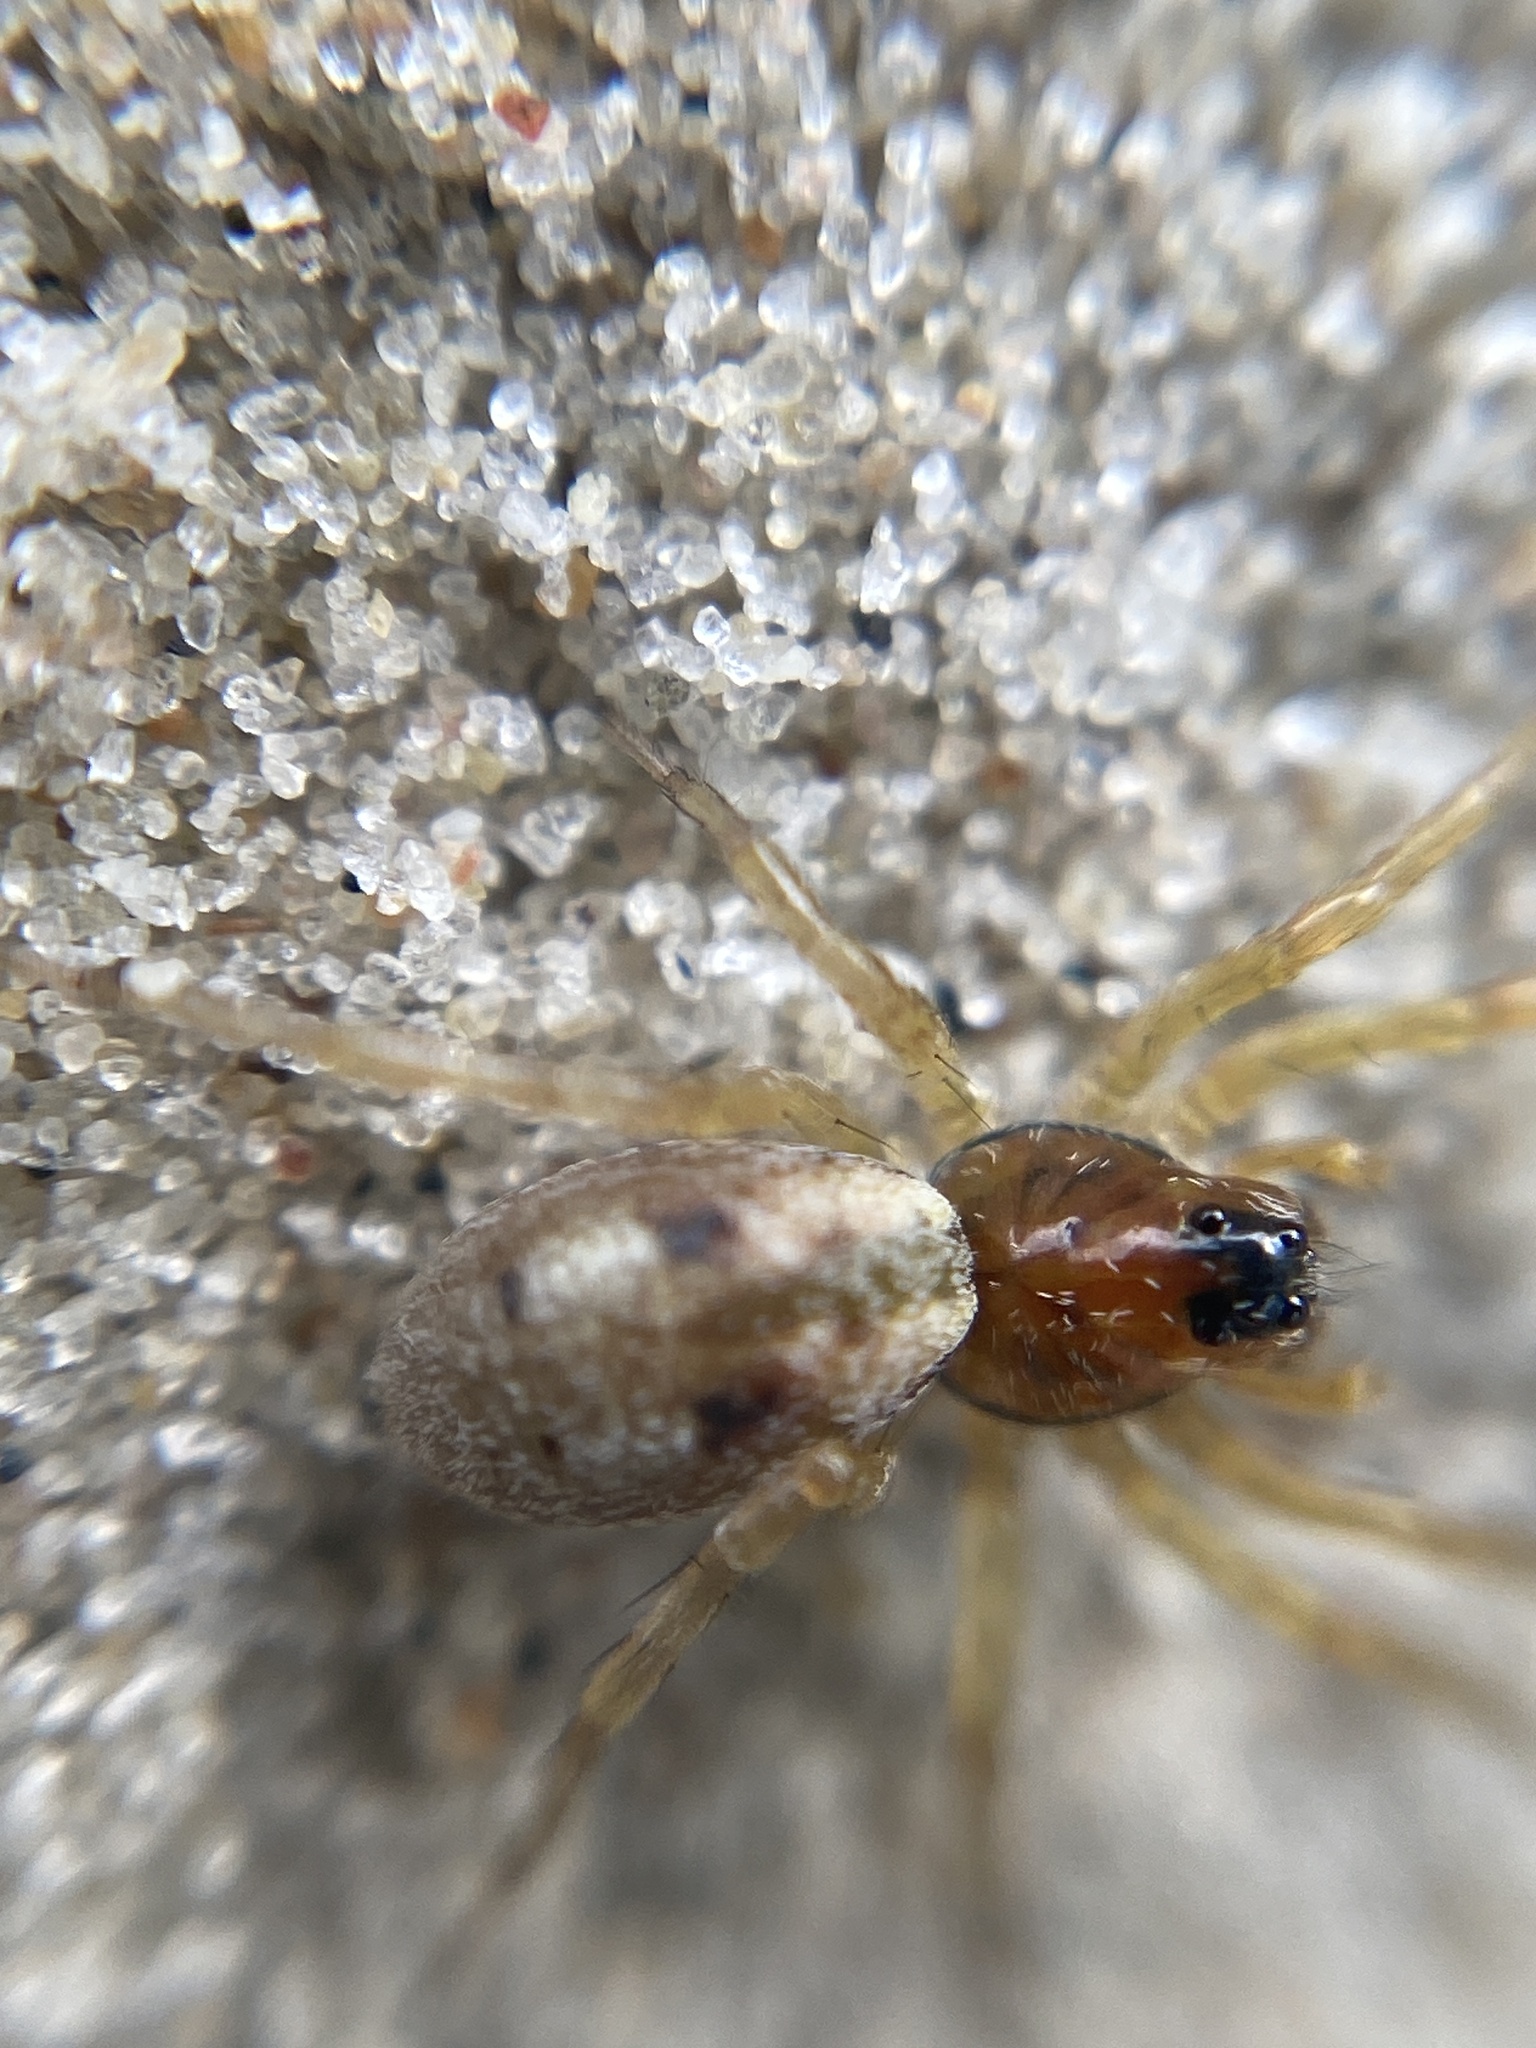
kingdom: Animalia
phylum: Arthropoda
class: Arachnida
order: Araneae
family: Lycosidae
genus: Arctosa
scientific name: Arctosa perita
